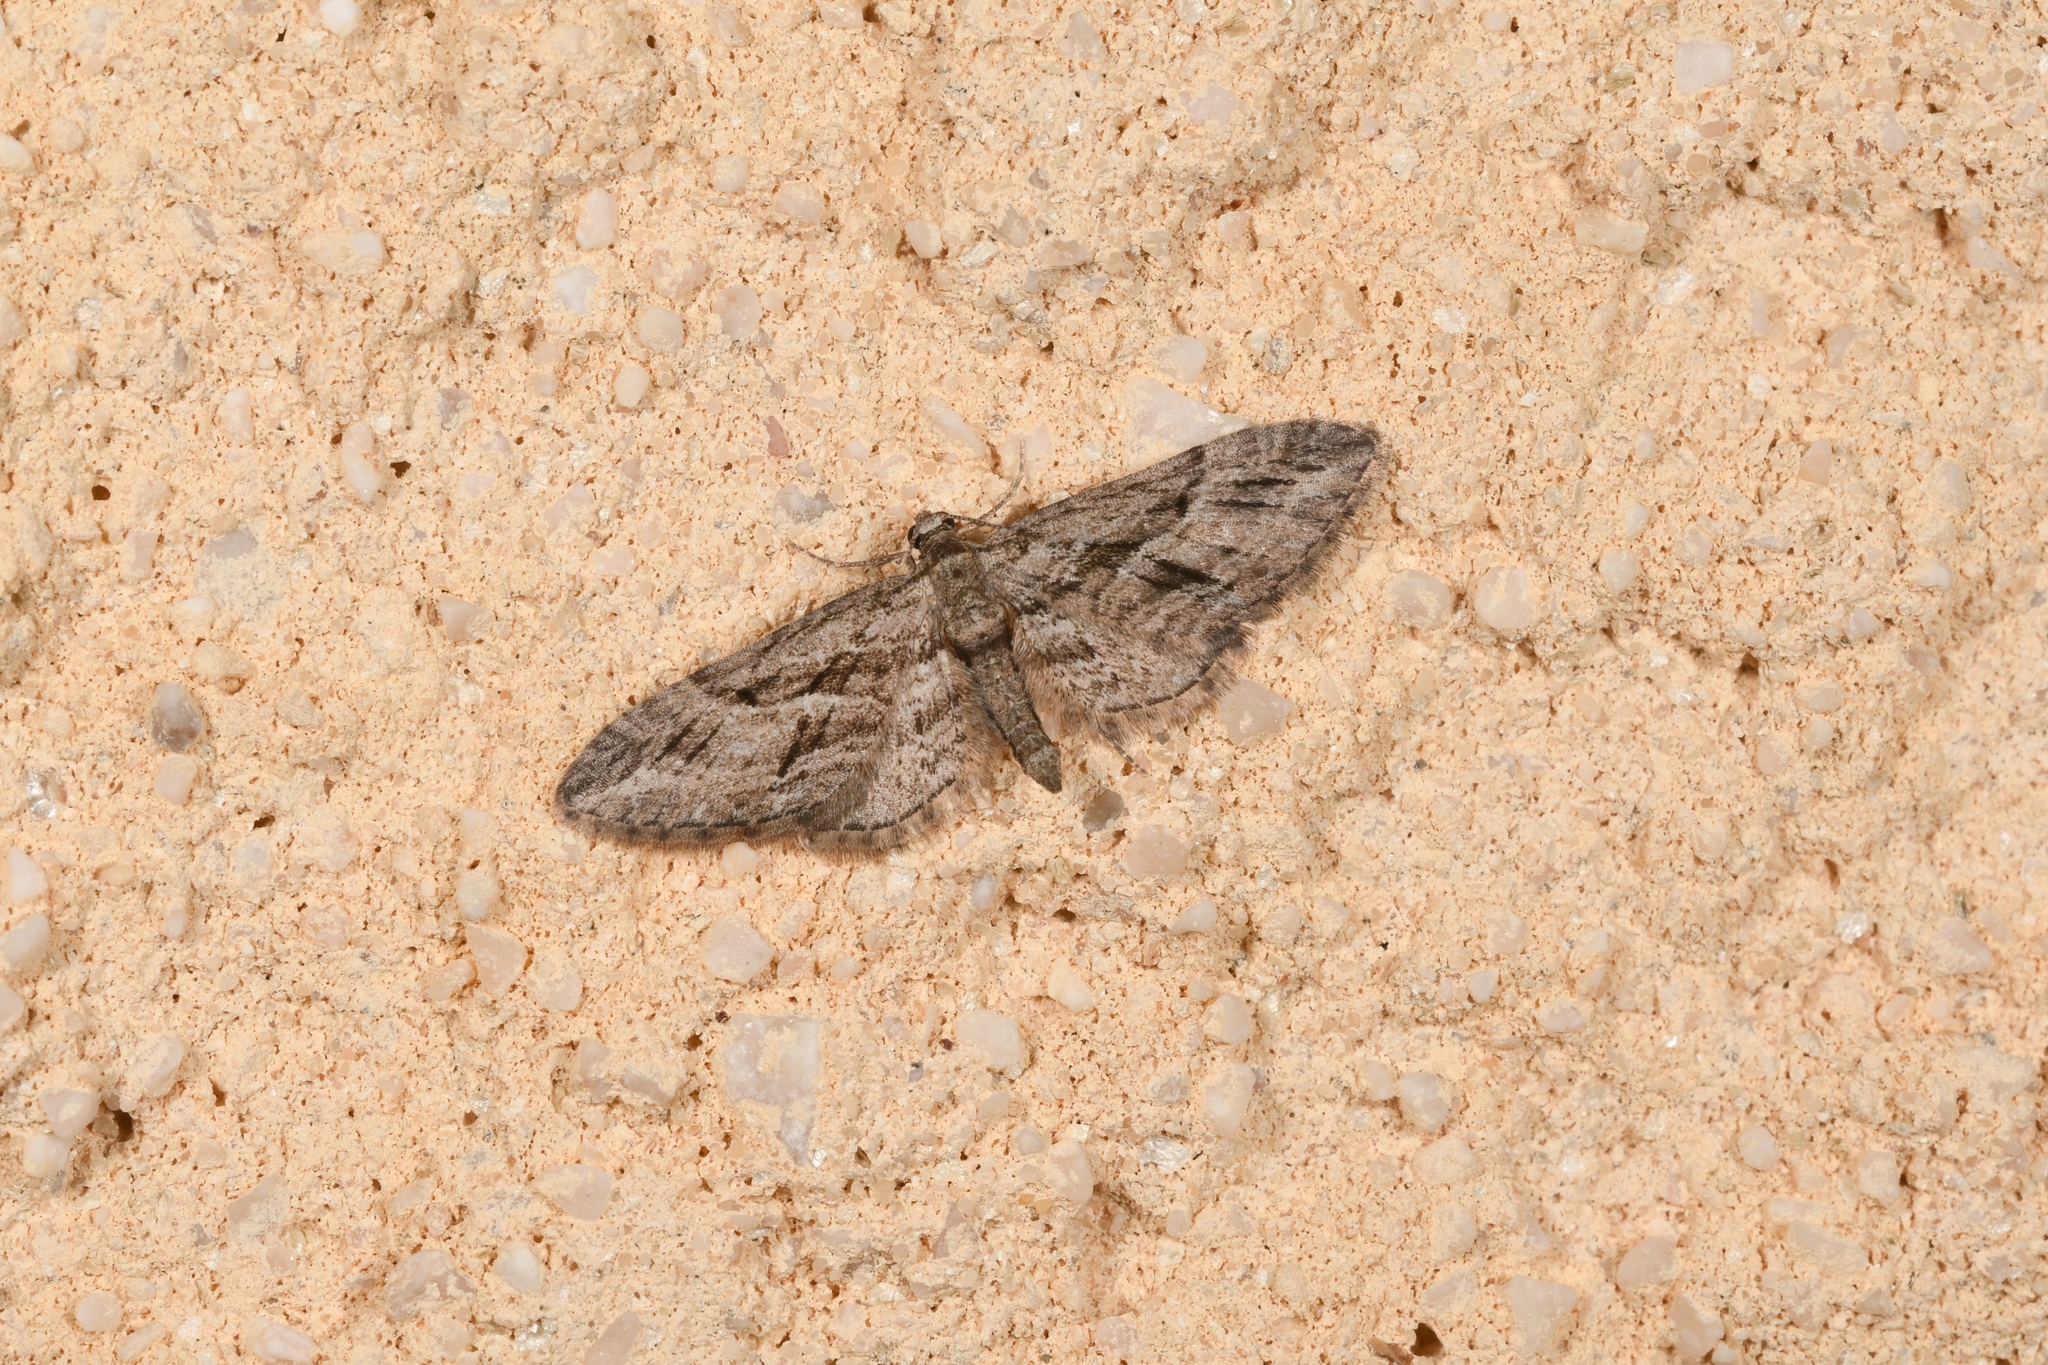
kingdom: Animalia
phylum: Arthropoda
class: Insecta
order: Lepidoptera
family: Geometridae
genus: Eupithecia
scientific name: Eupithecia oxycedrata
